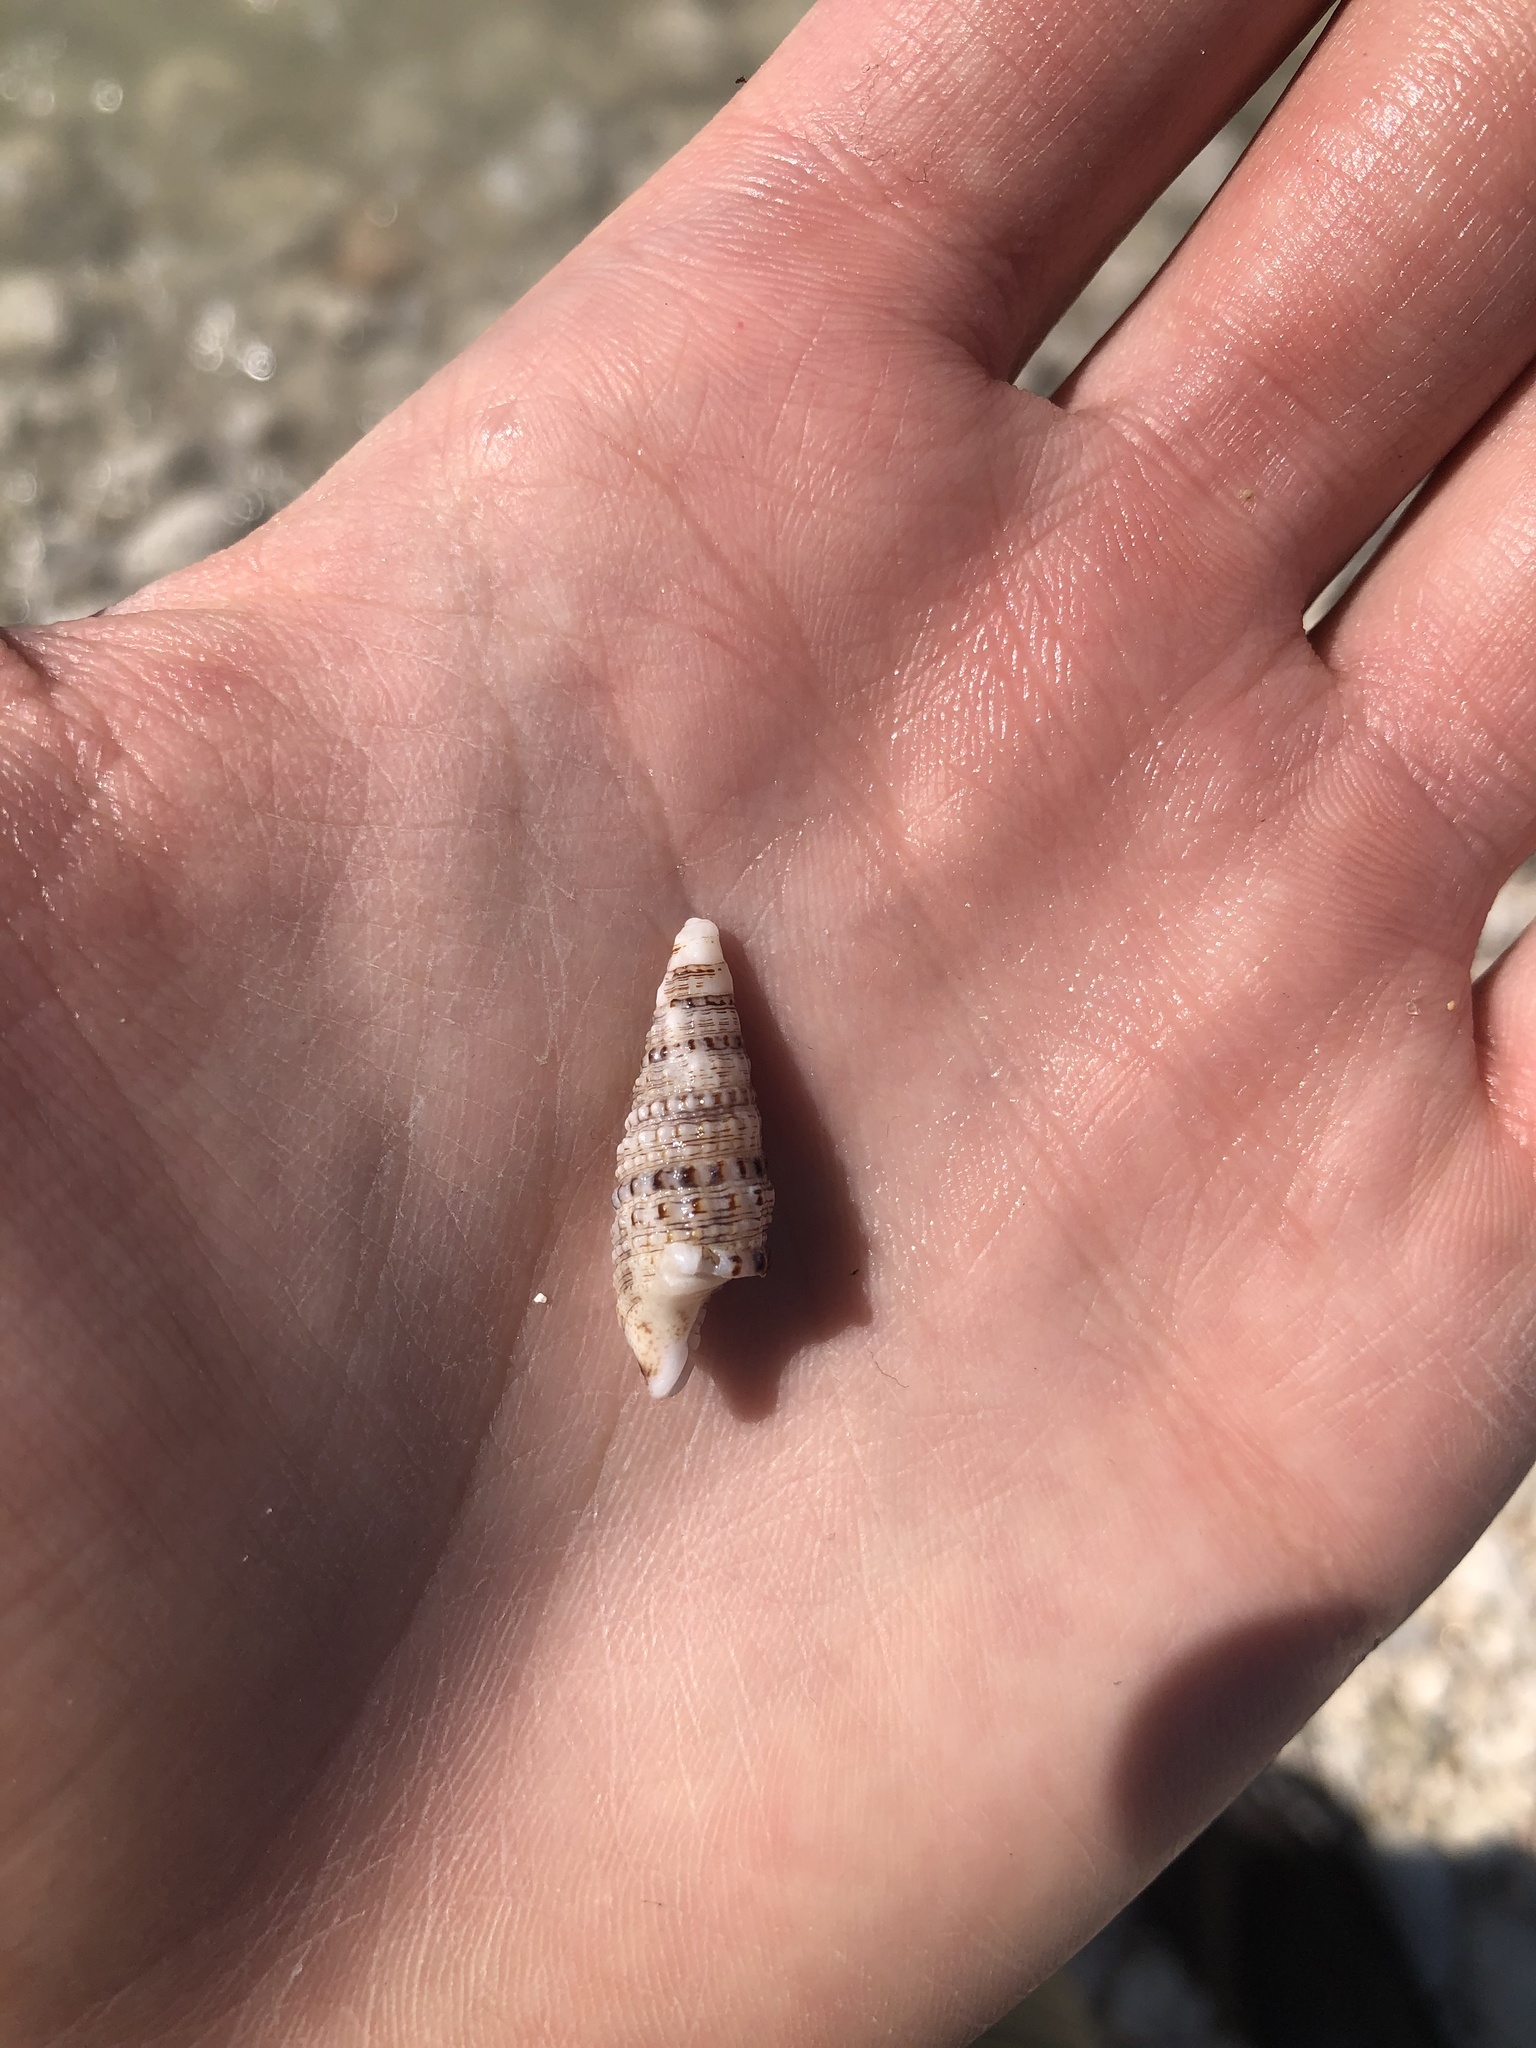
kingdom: Animalia
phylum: Mollusca
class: Gastropoda
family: Cerithiidae
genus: Cerithium
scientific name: Cerithium atratum
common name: Dark cerith
